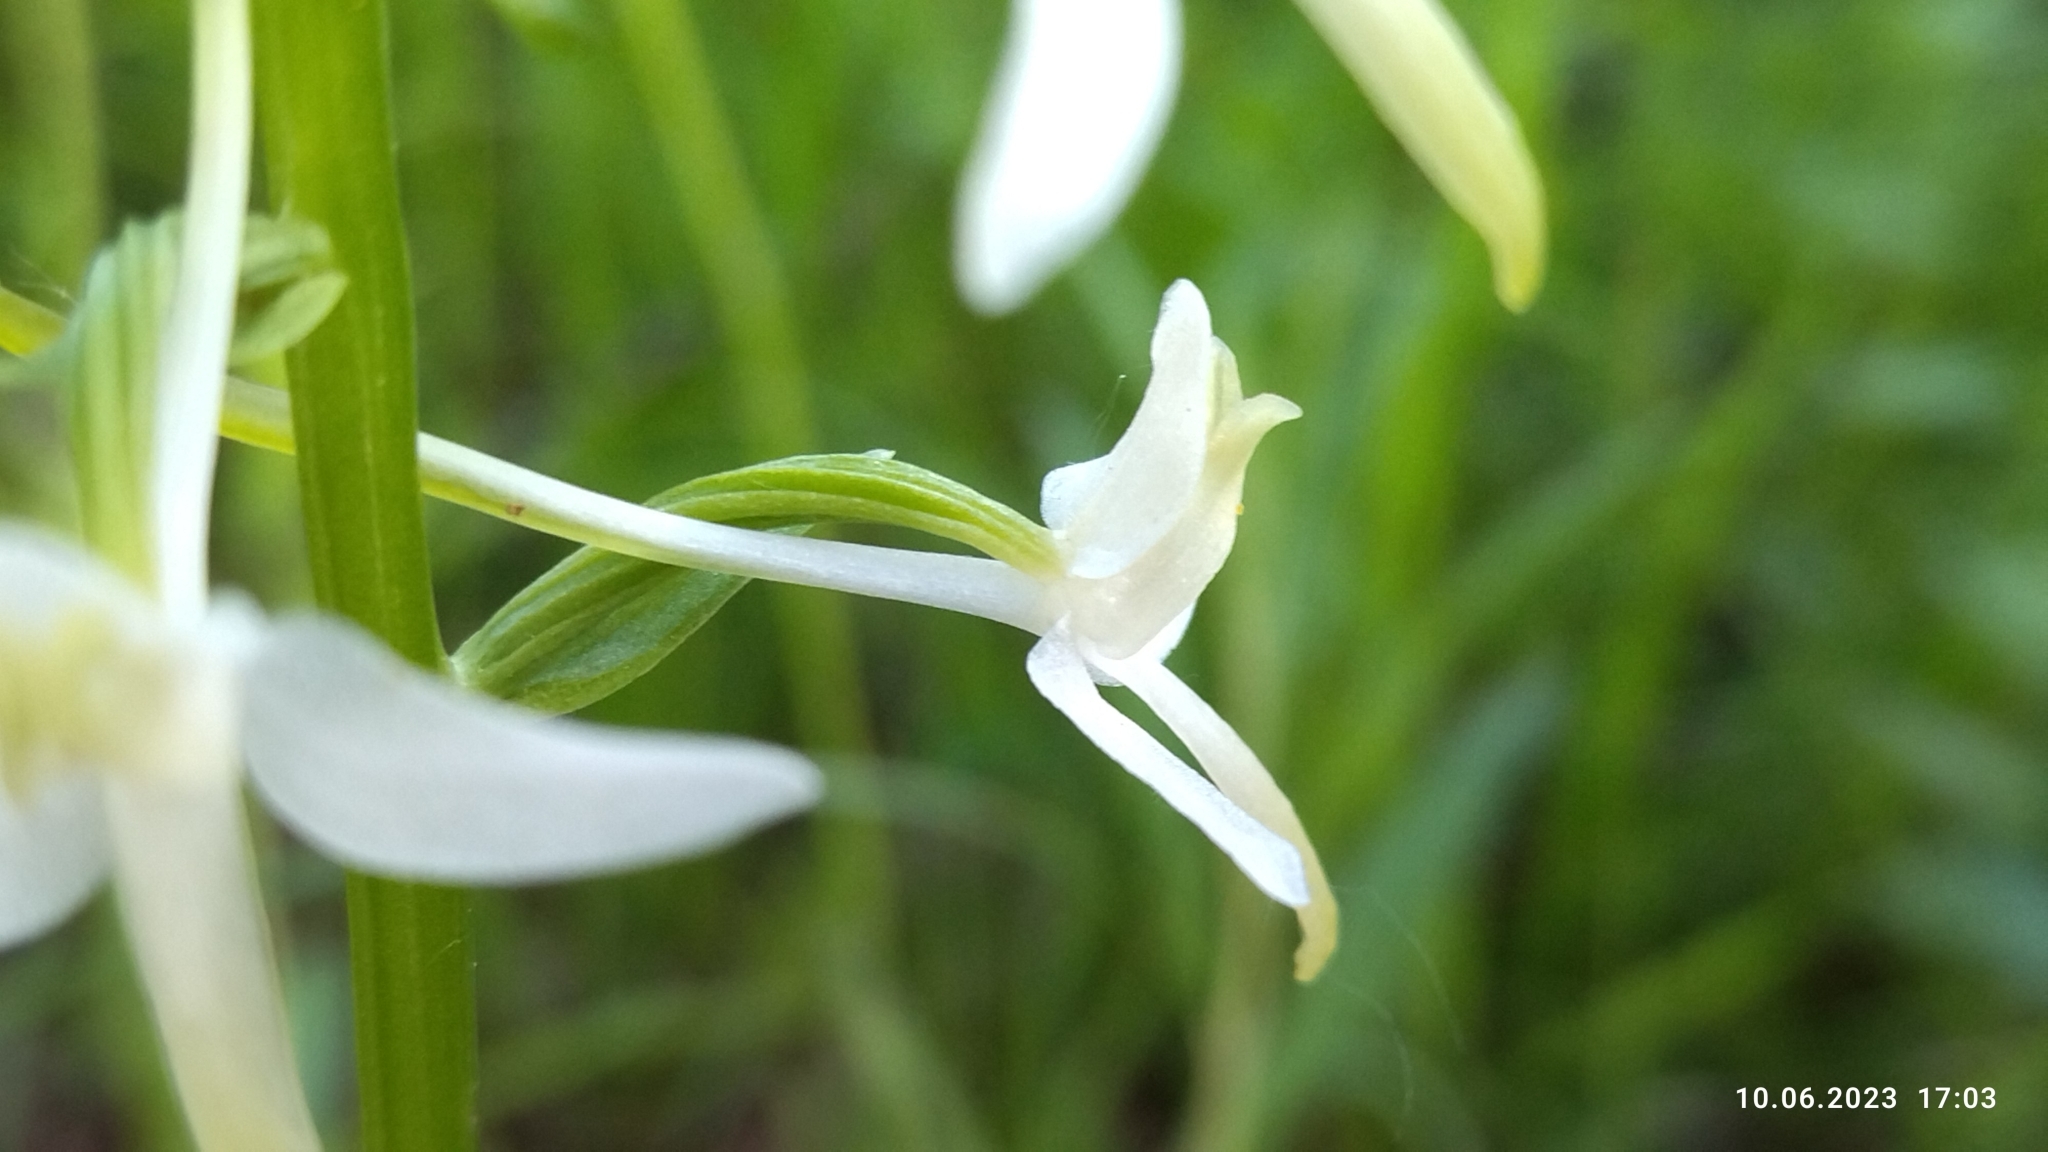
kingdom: Plantae
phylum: Tracheophyta
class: Liliopsida
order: Asparagales
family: Orchidaceae
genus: Platanthera
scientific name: Platanthera bifolia
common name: Lesser butterfly-orchid
